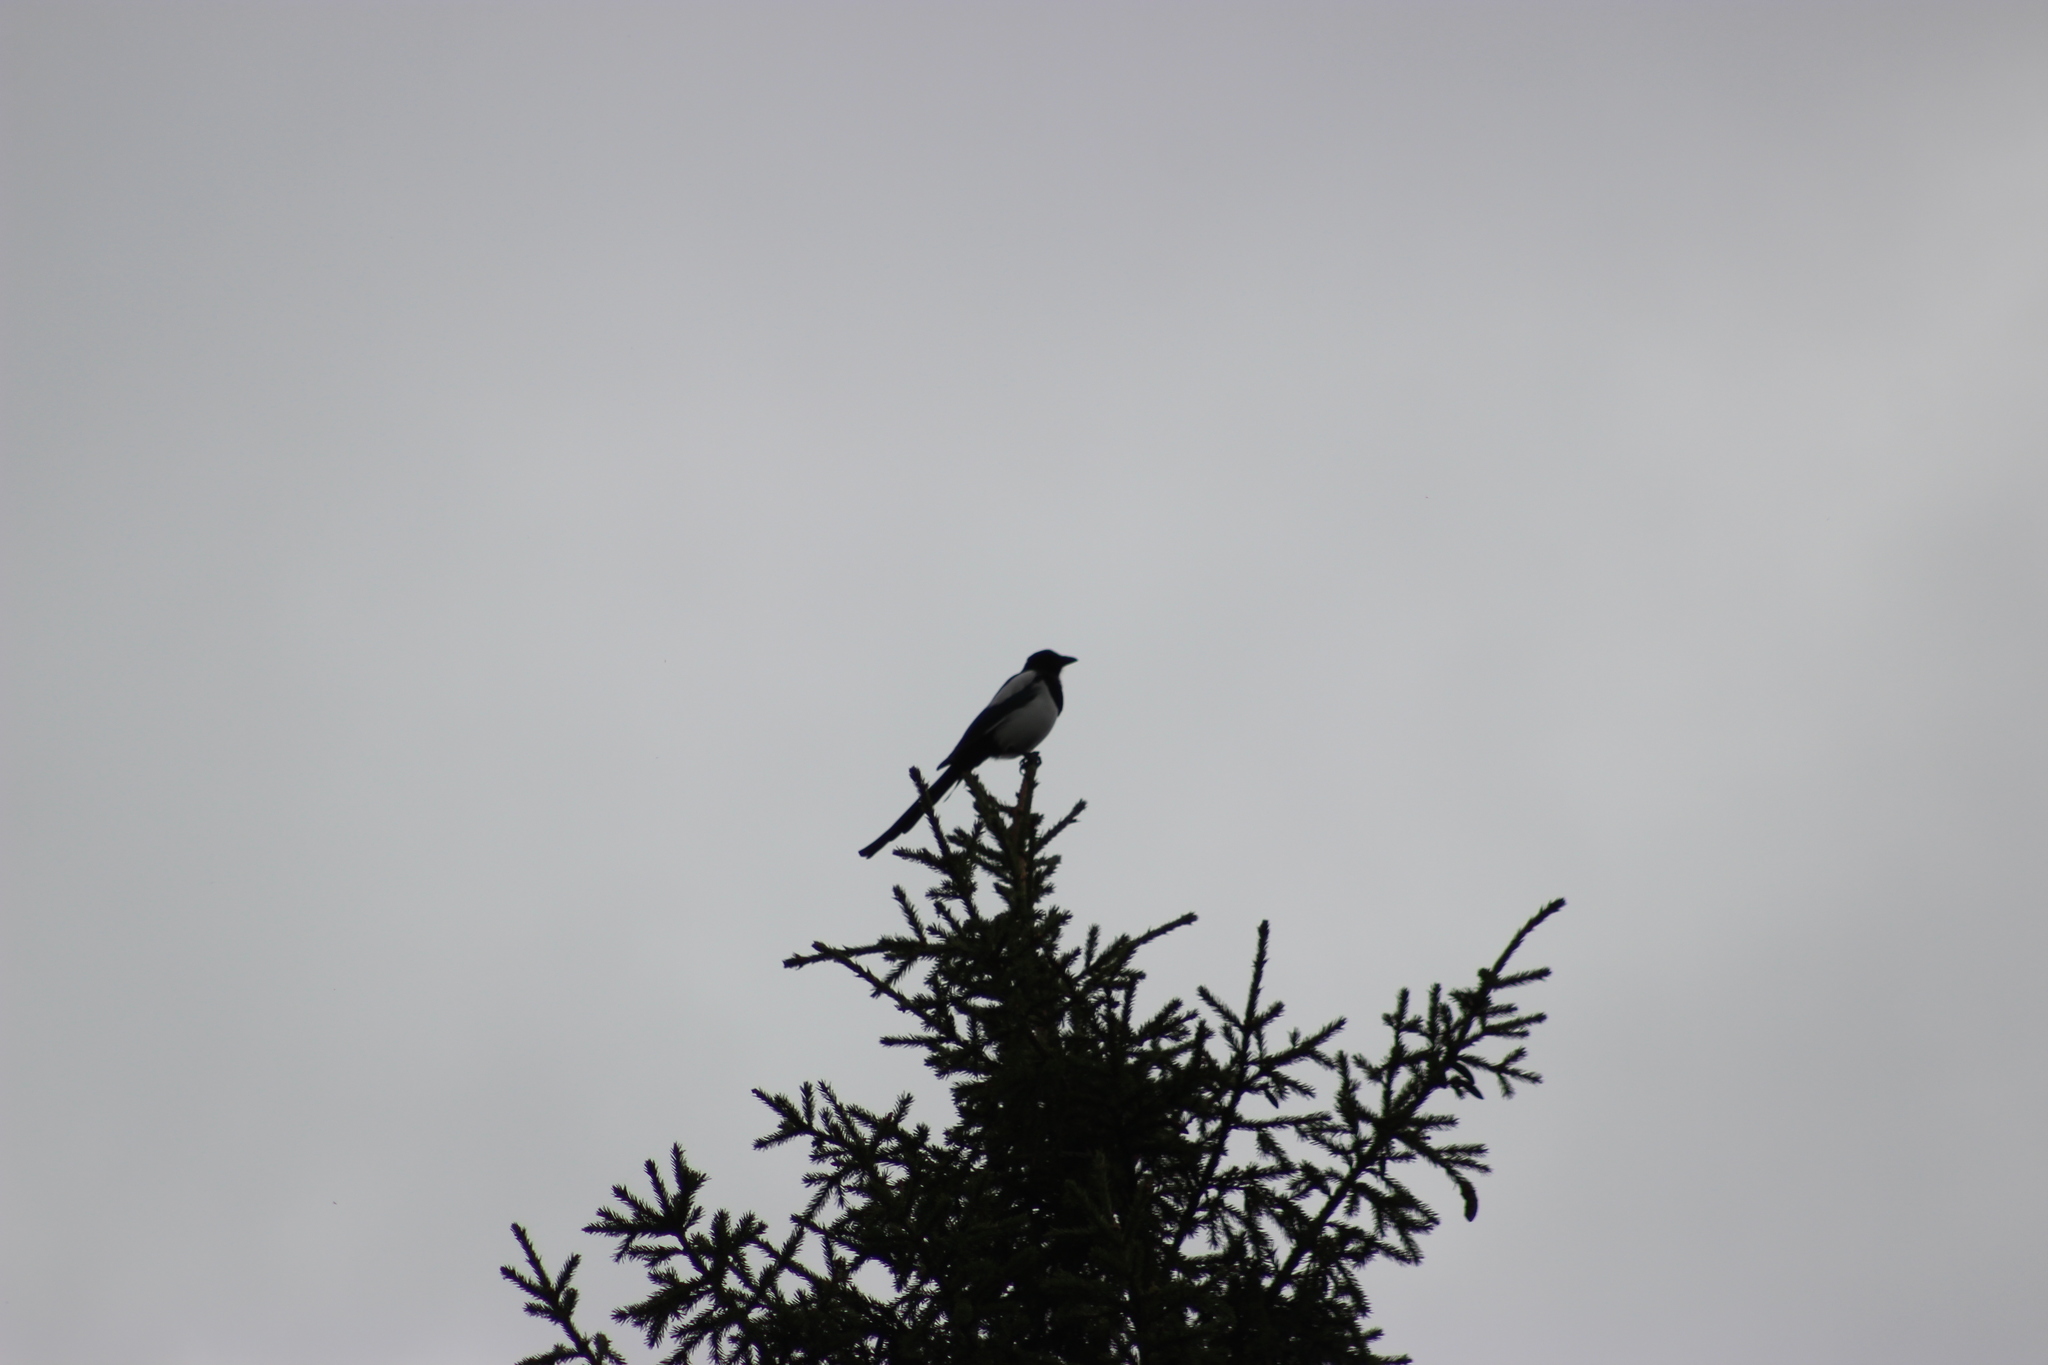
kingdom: Animalia
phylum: Chordata
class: Aves
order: Passeriformes
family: Corvidae
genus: Pica
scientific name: Pica pica
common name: Eurasian magpie
